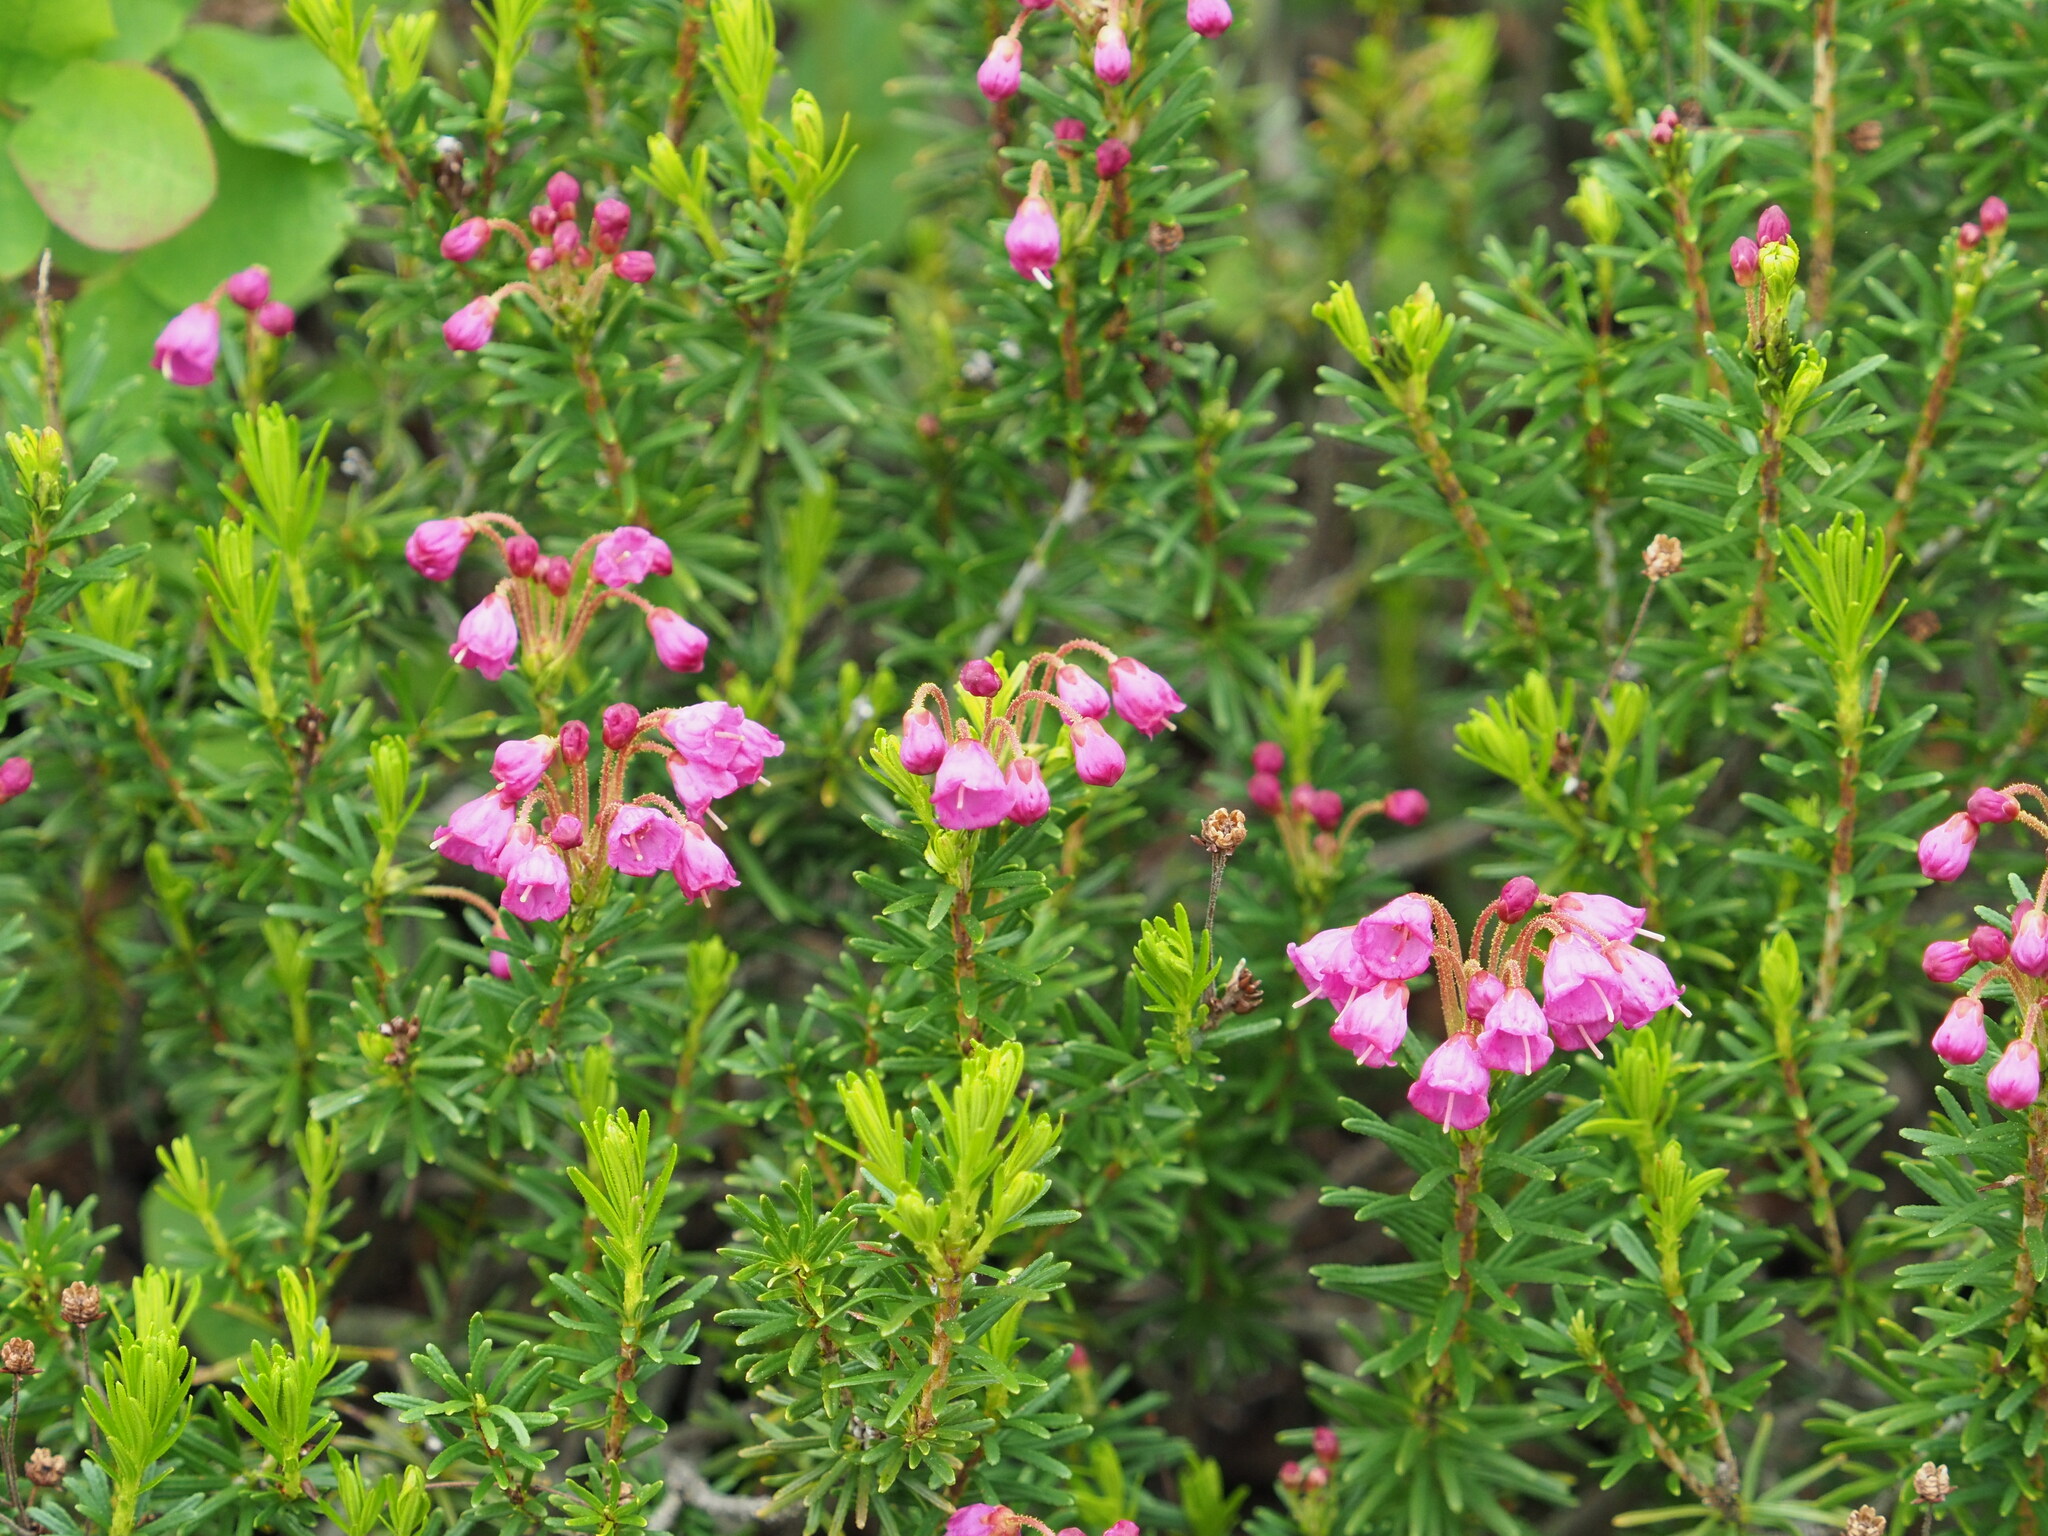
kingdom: Plantae
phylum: Tracheophyta
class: Magnoliopsida
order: Ericales
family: Ericaceae
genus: Phyllodoce
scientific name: Phyllodoce empetriformis
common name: Pink mountain heather
